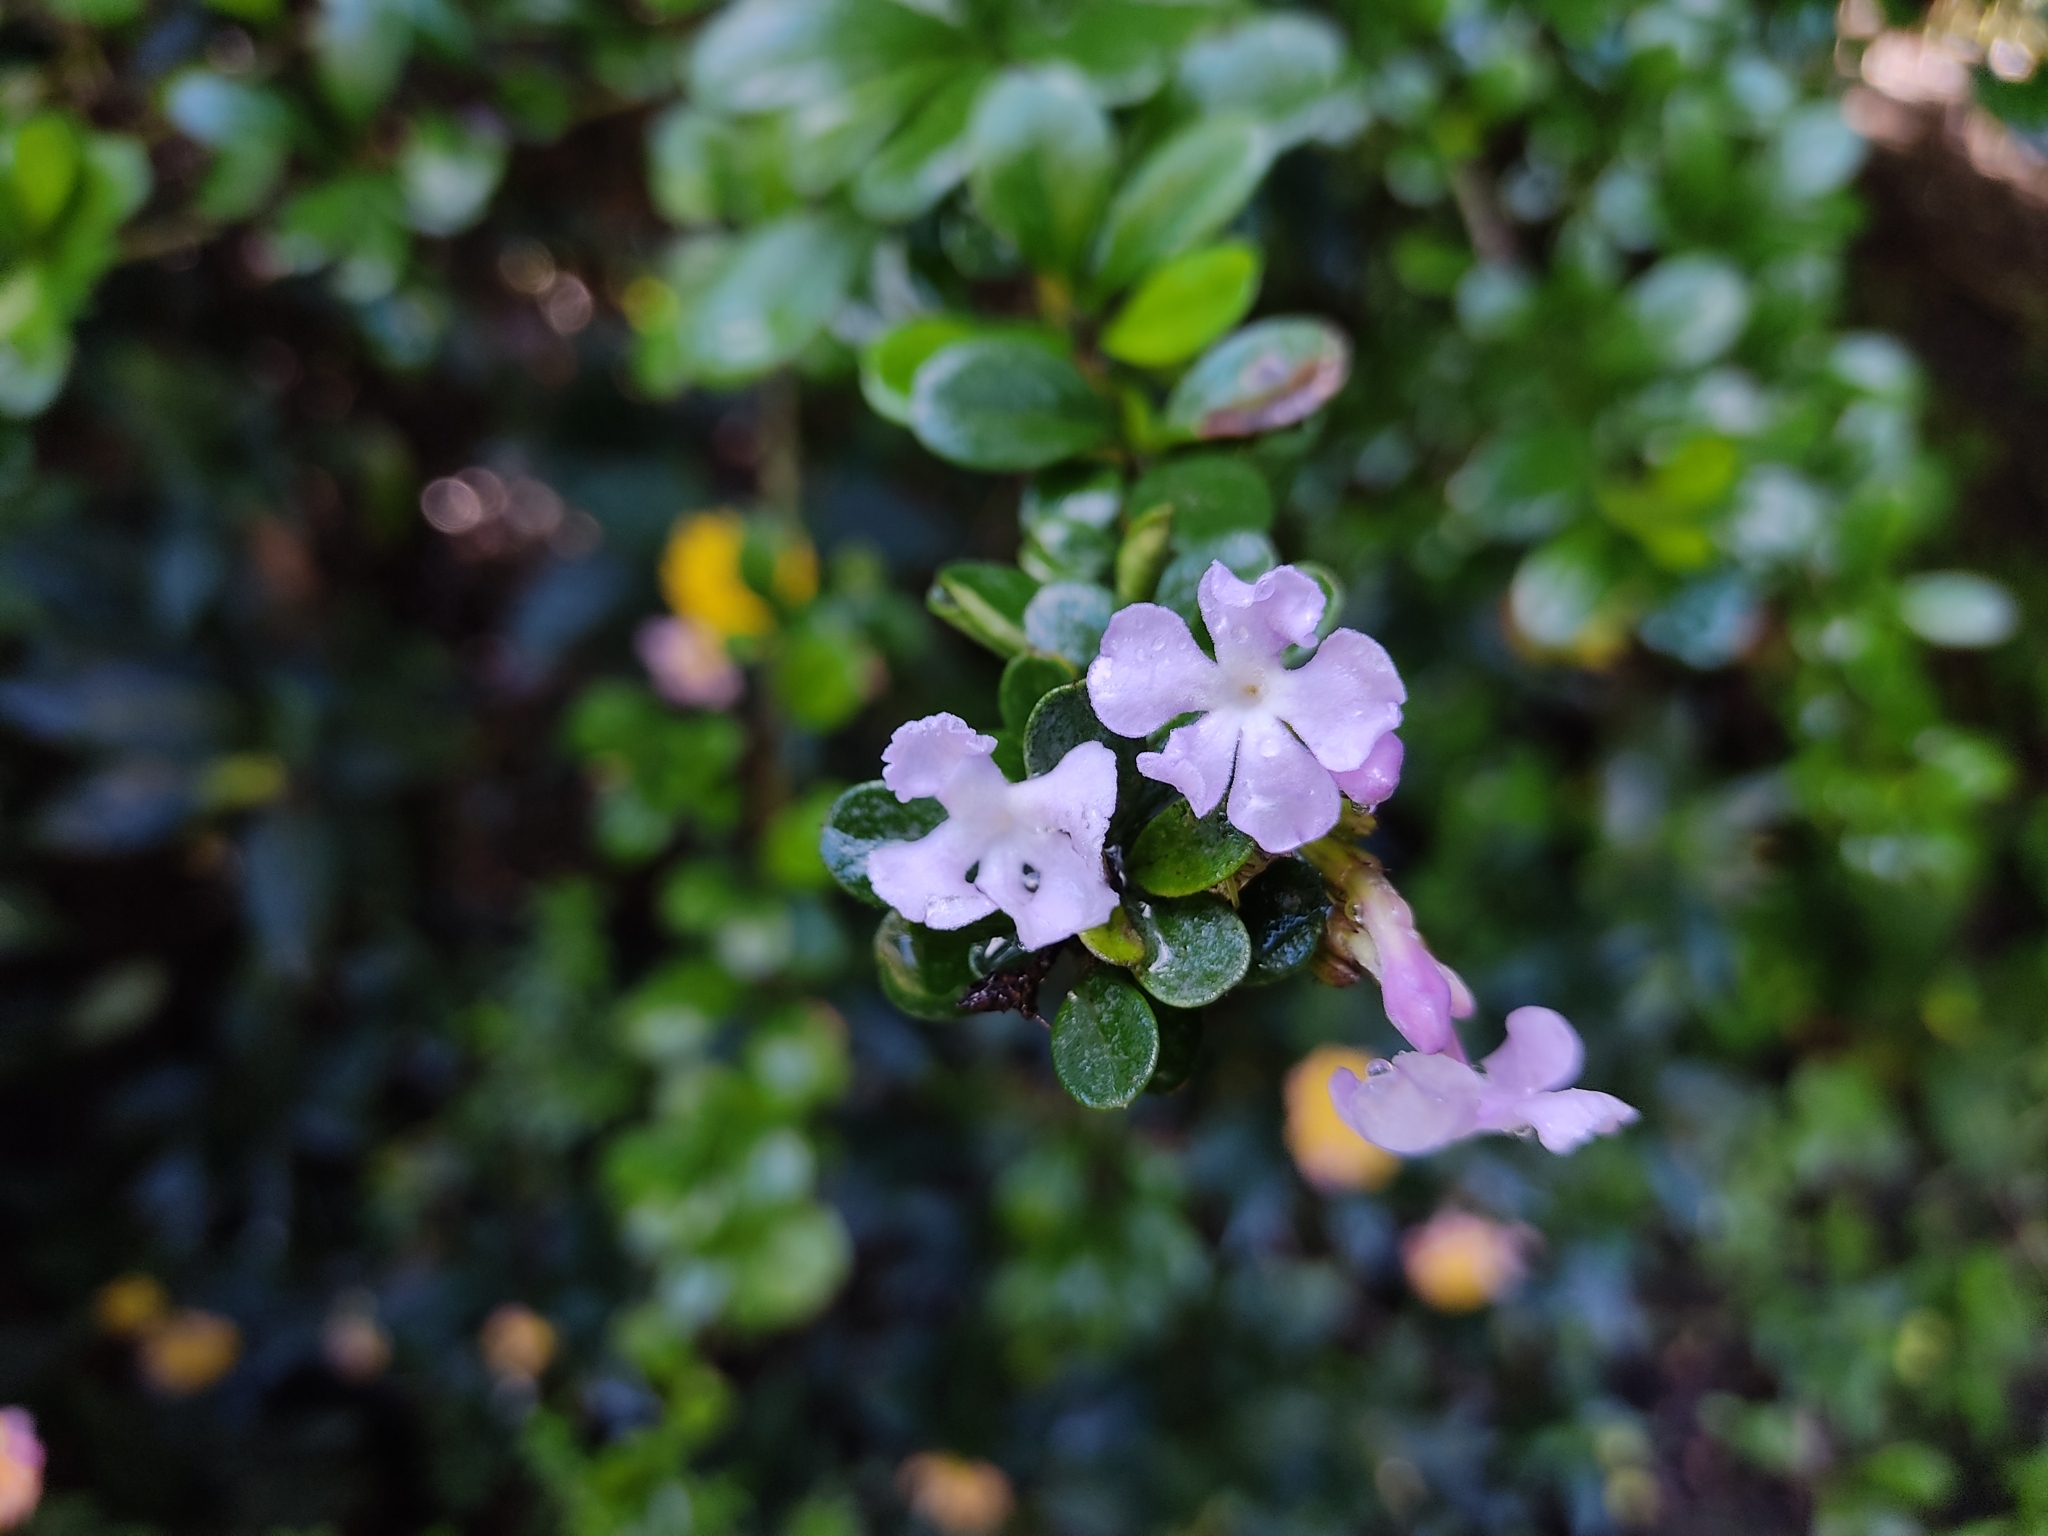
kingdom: Plantae
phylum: Tracheophyta
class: Magnoliopsida
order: Lamiales
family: Verbenaceae
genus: Duranta
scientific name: Duranta triacantha
